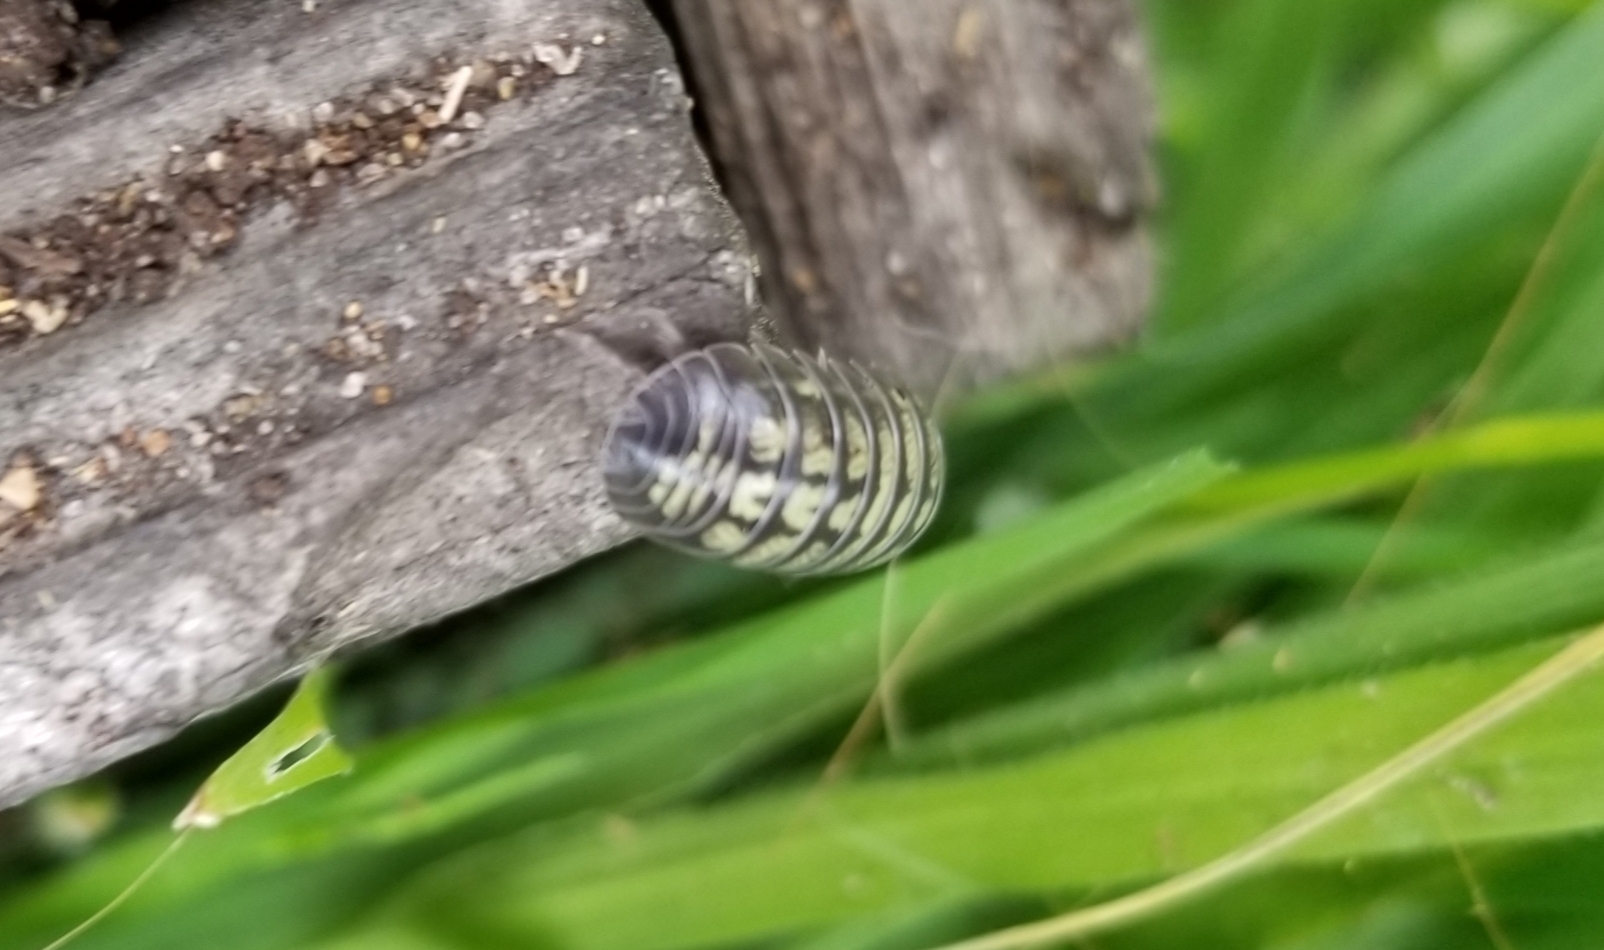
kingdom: Animalia
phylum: Arthropoda
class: Malacostraca
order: Isopoda
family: Armadillidiidae
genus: Armadillidium
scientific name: Armadillidium vulgare
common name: Common pill woodlouse
